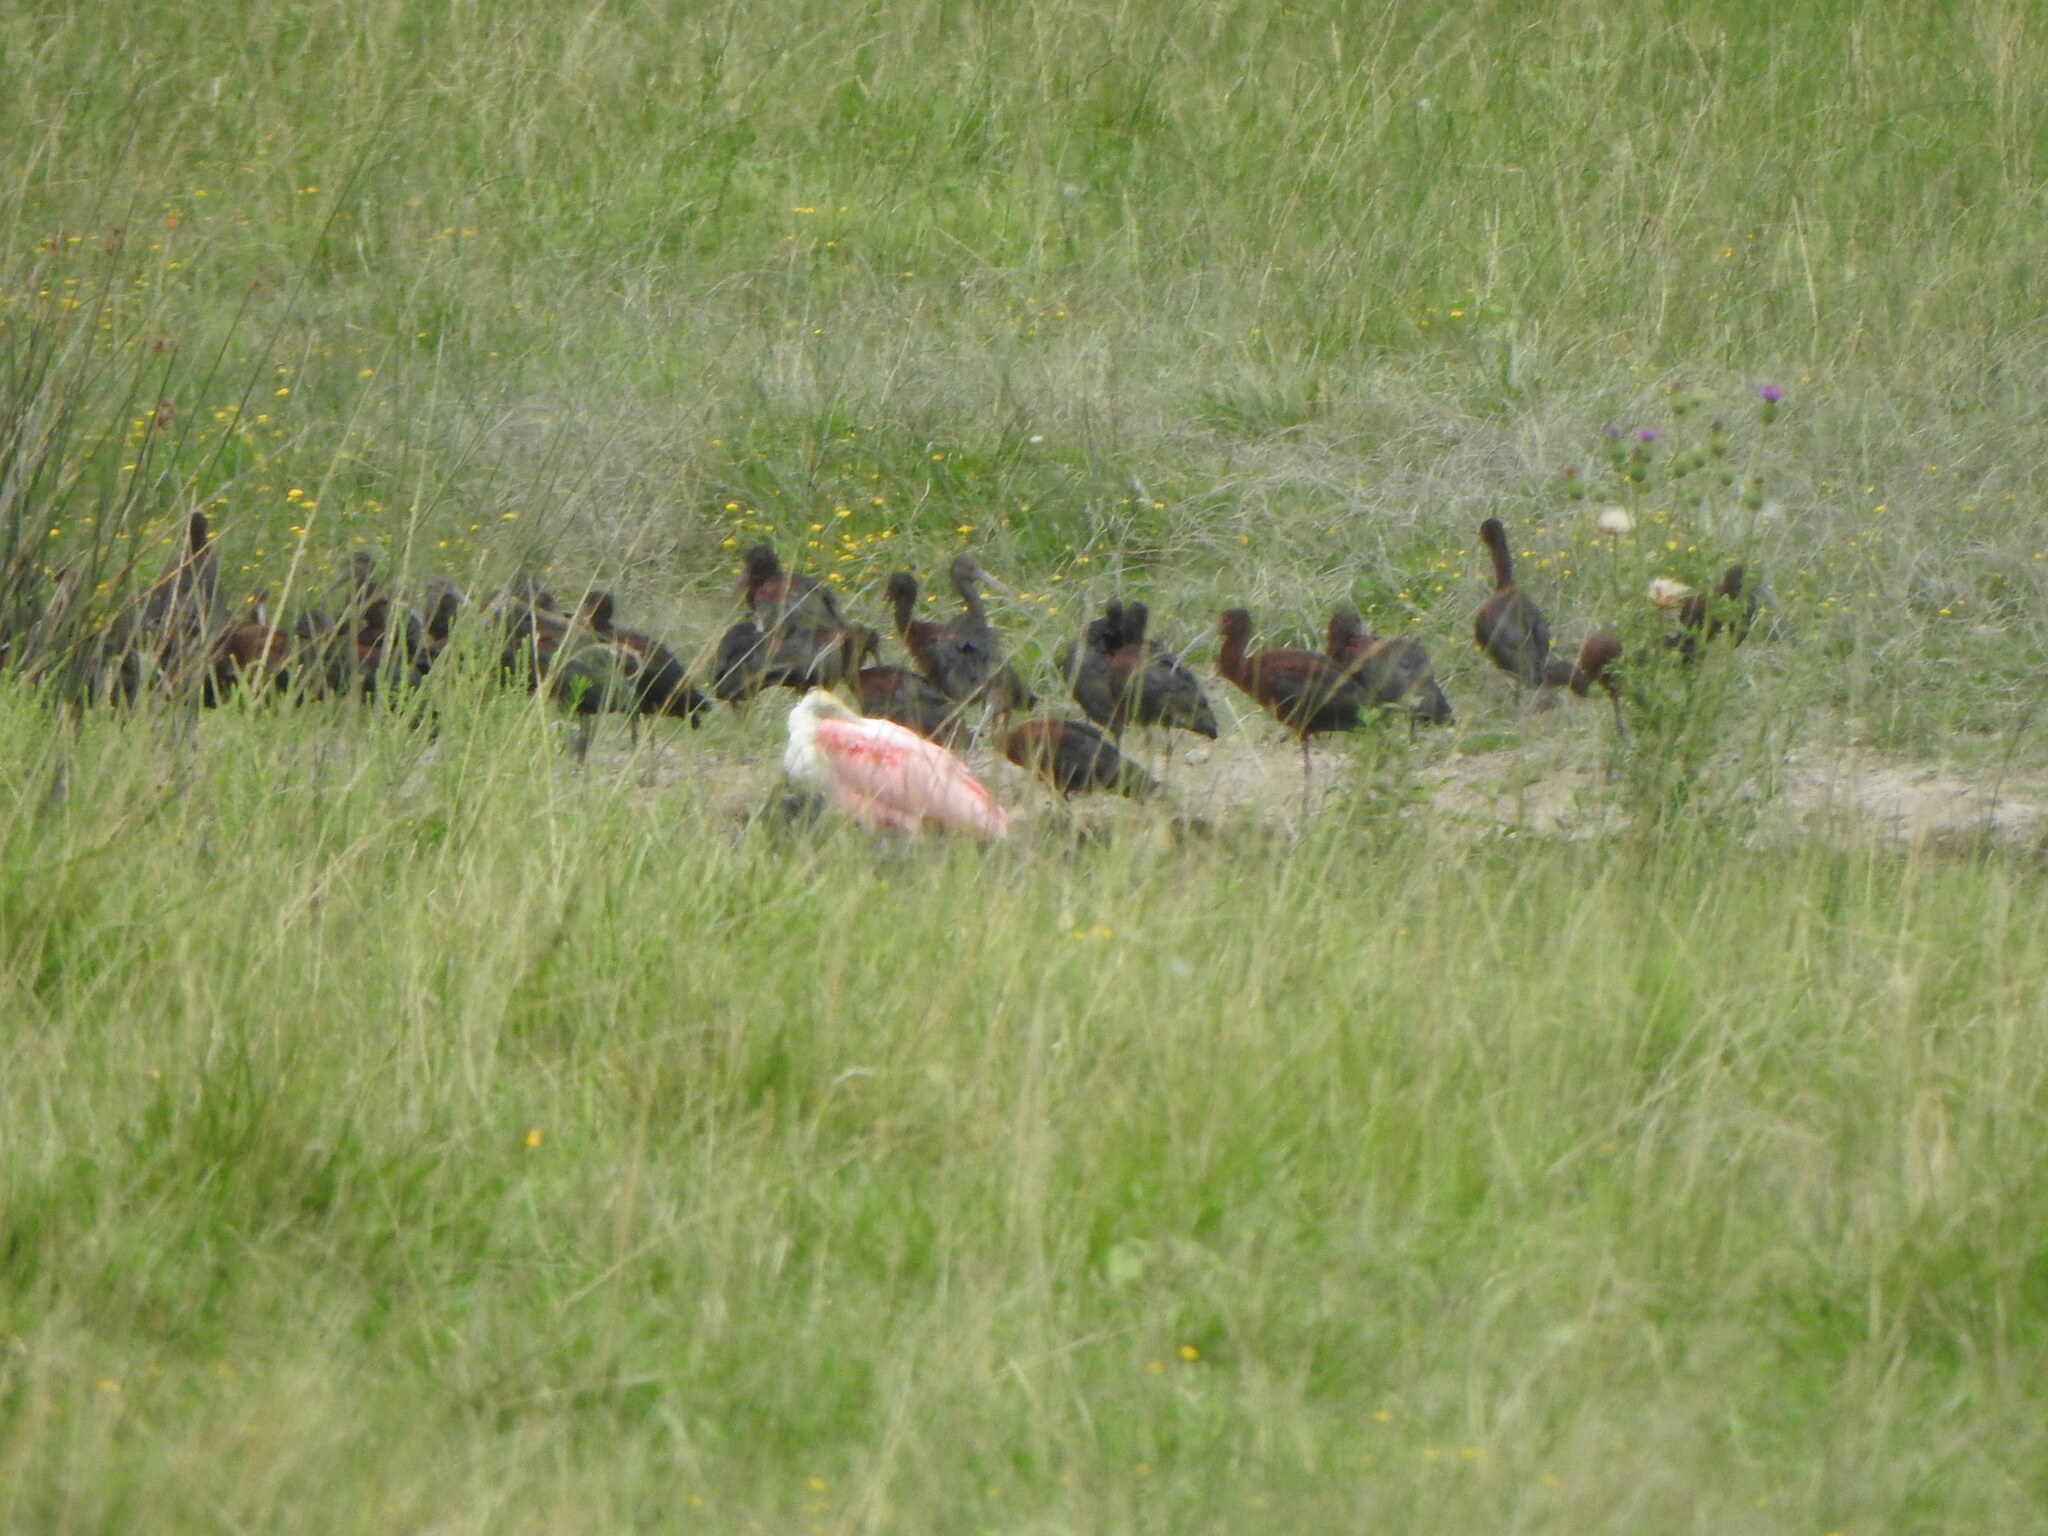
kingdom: Animalia
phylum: Chordata
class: Aves
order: Pelecaniformes
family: Threskiornithidae
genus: Platalea
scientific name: Platalea ajaja
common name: Roseate spoonbill
